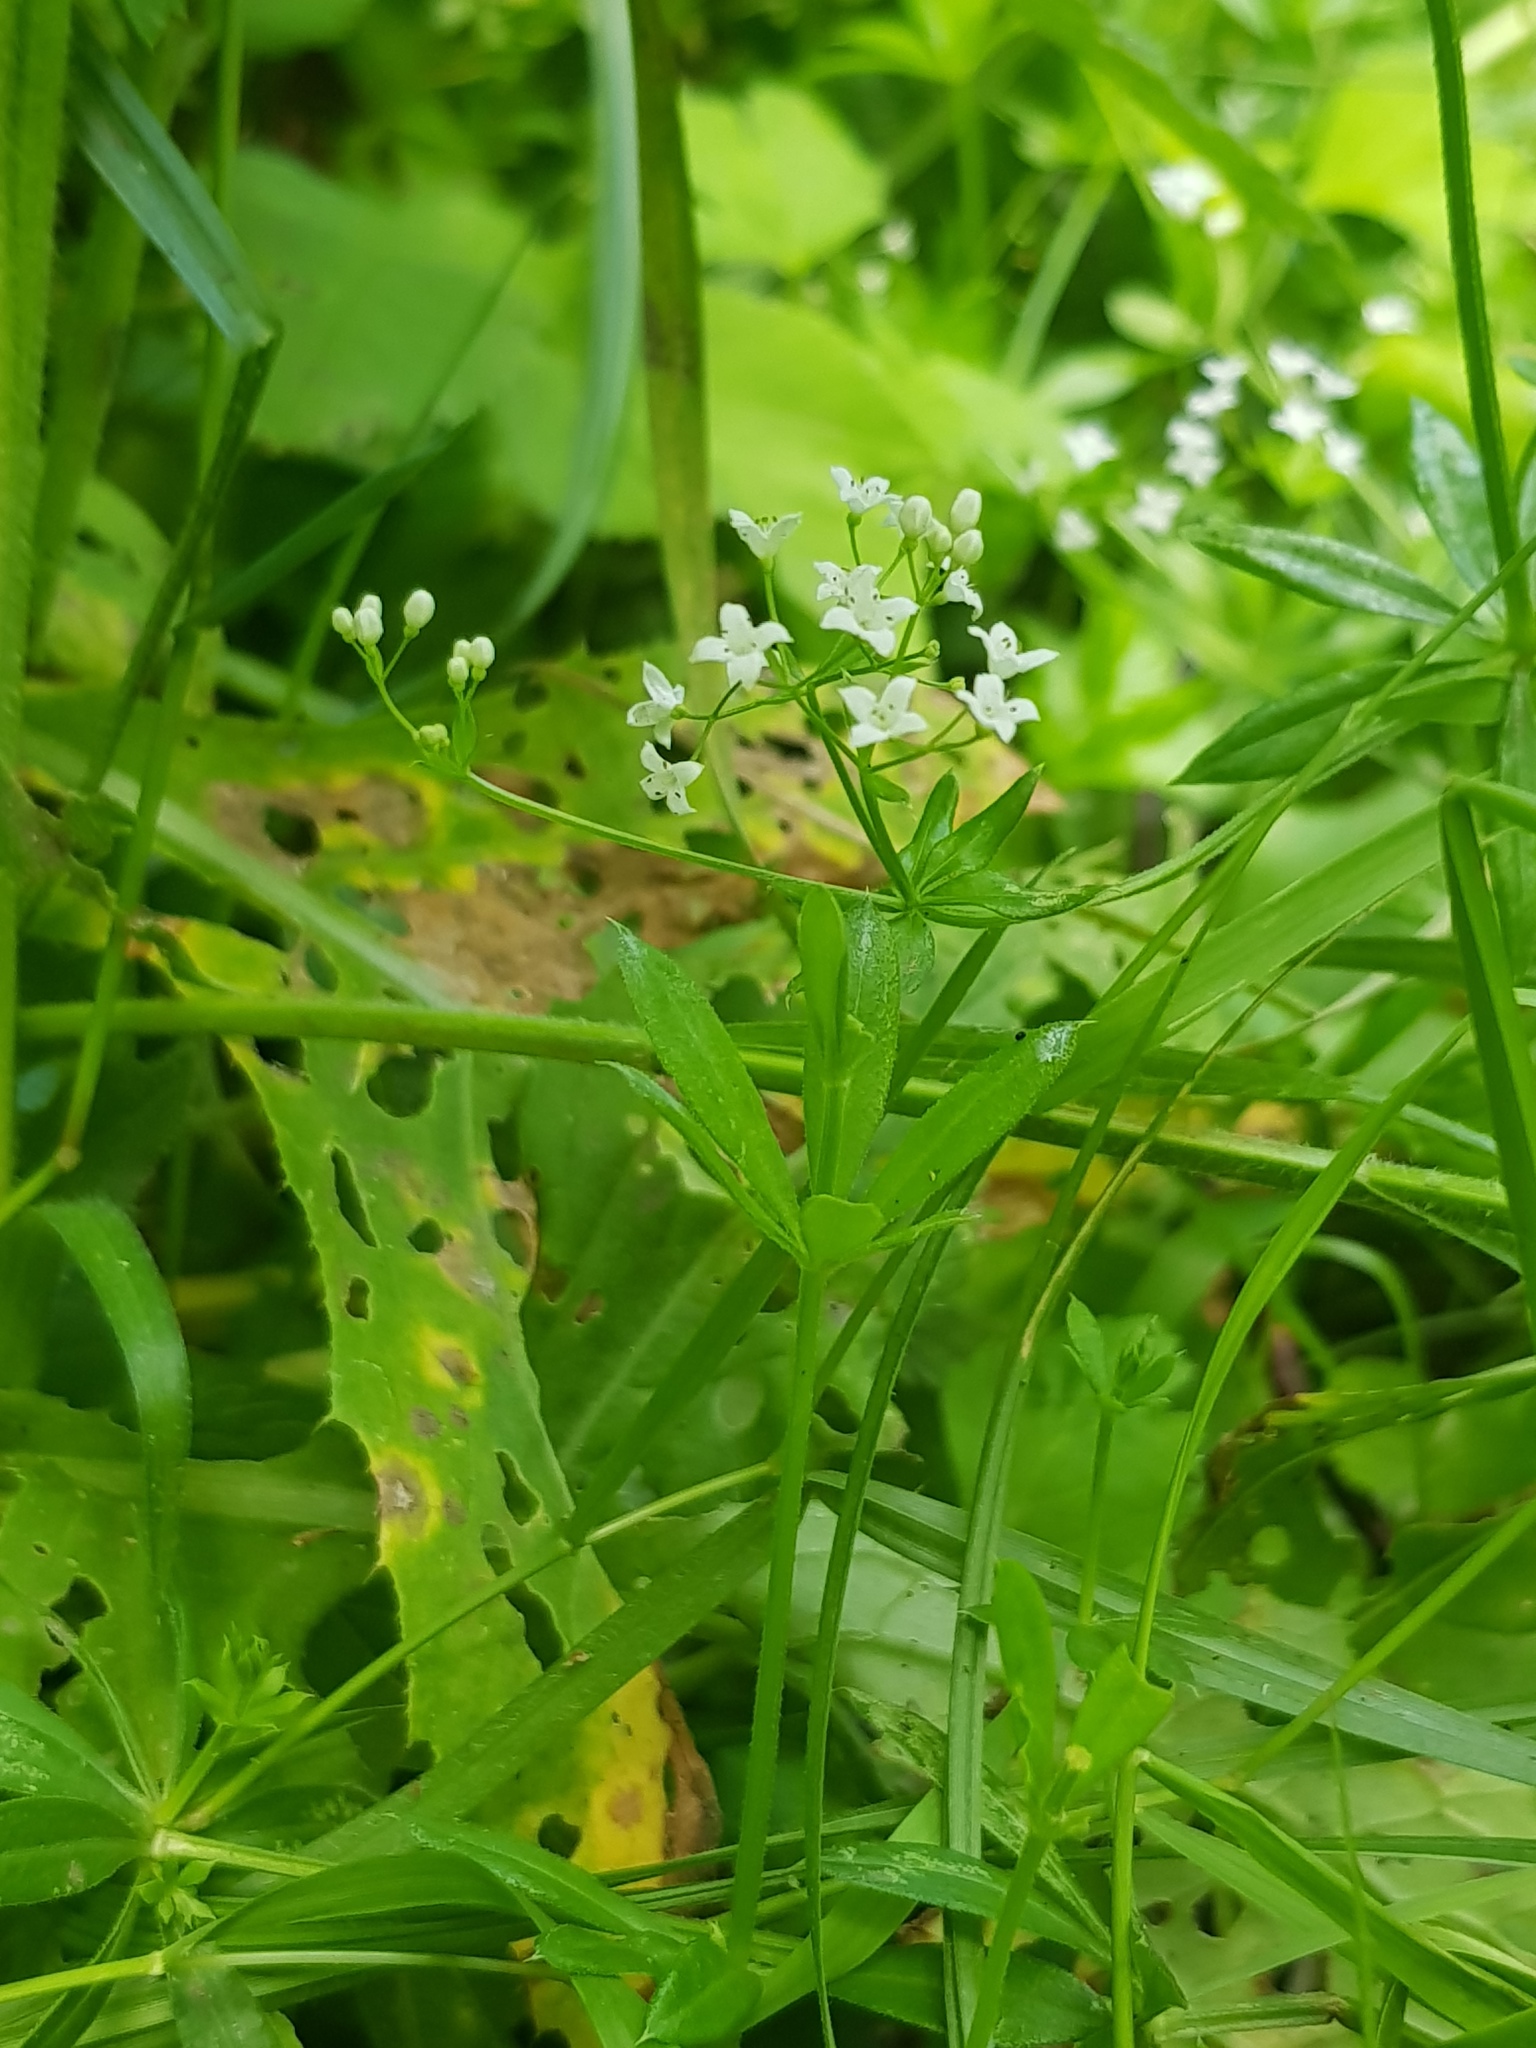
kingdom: Plantae
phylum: Tracheophyta
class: Magnoliopsida
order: Gentianales
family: Rubiaceae
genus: Galium
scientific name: Galium rivale
